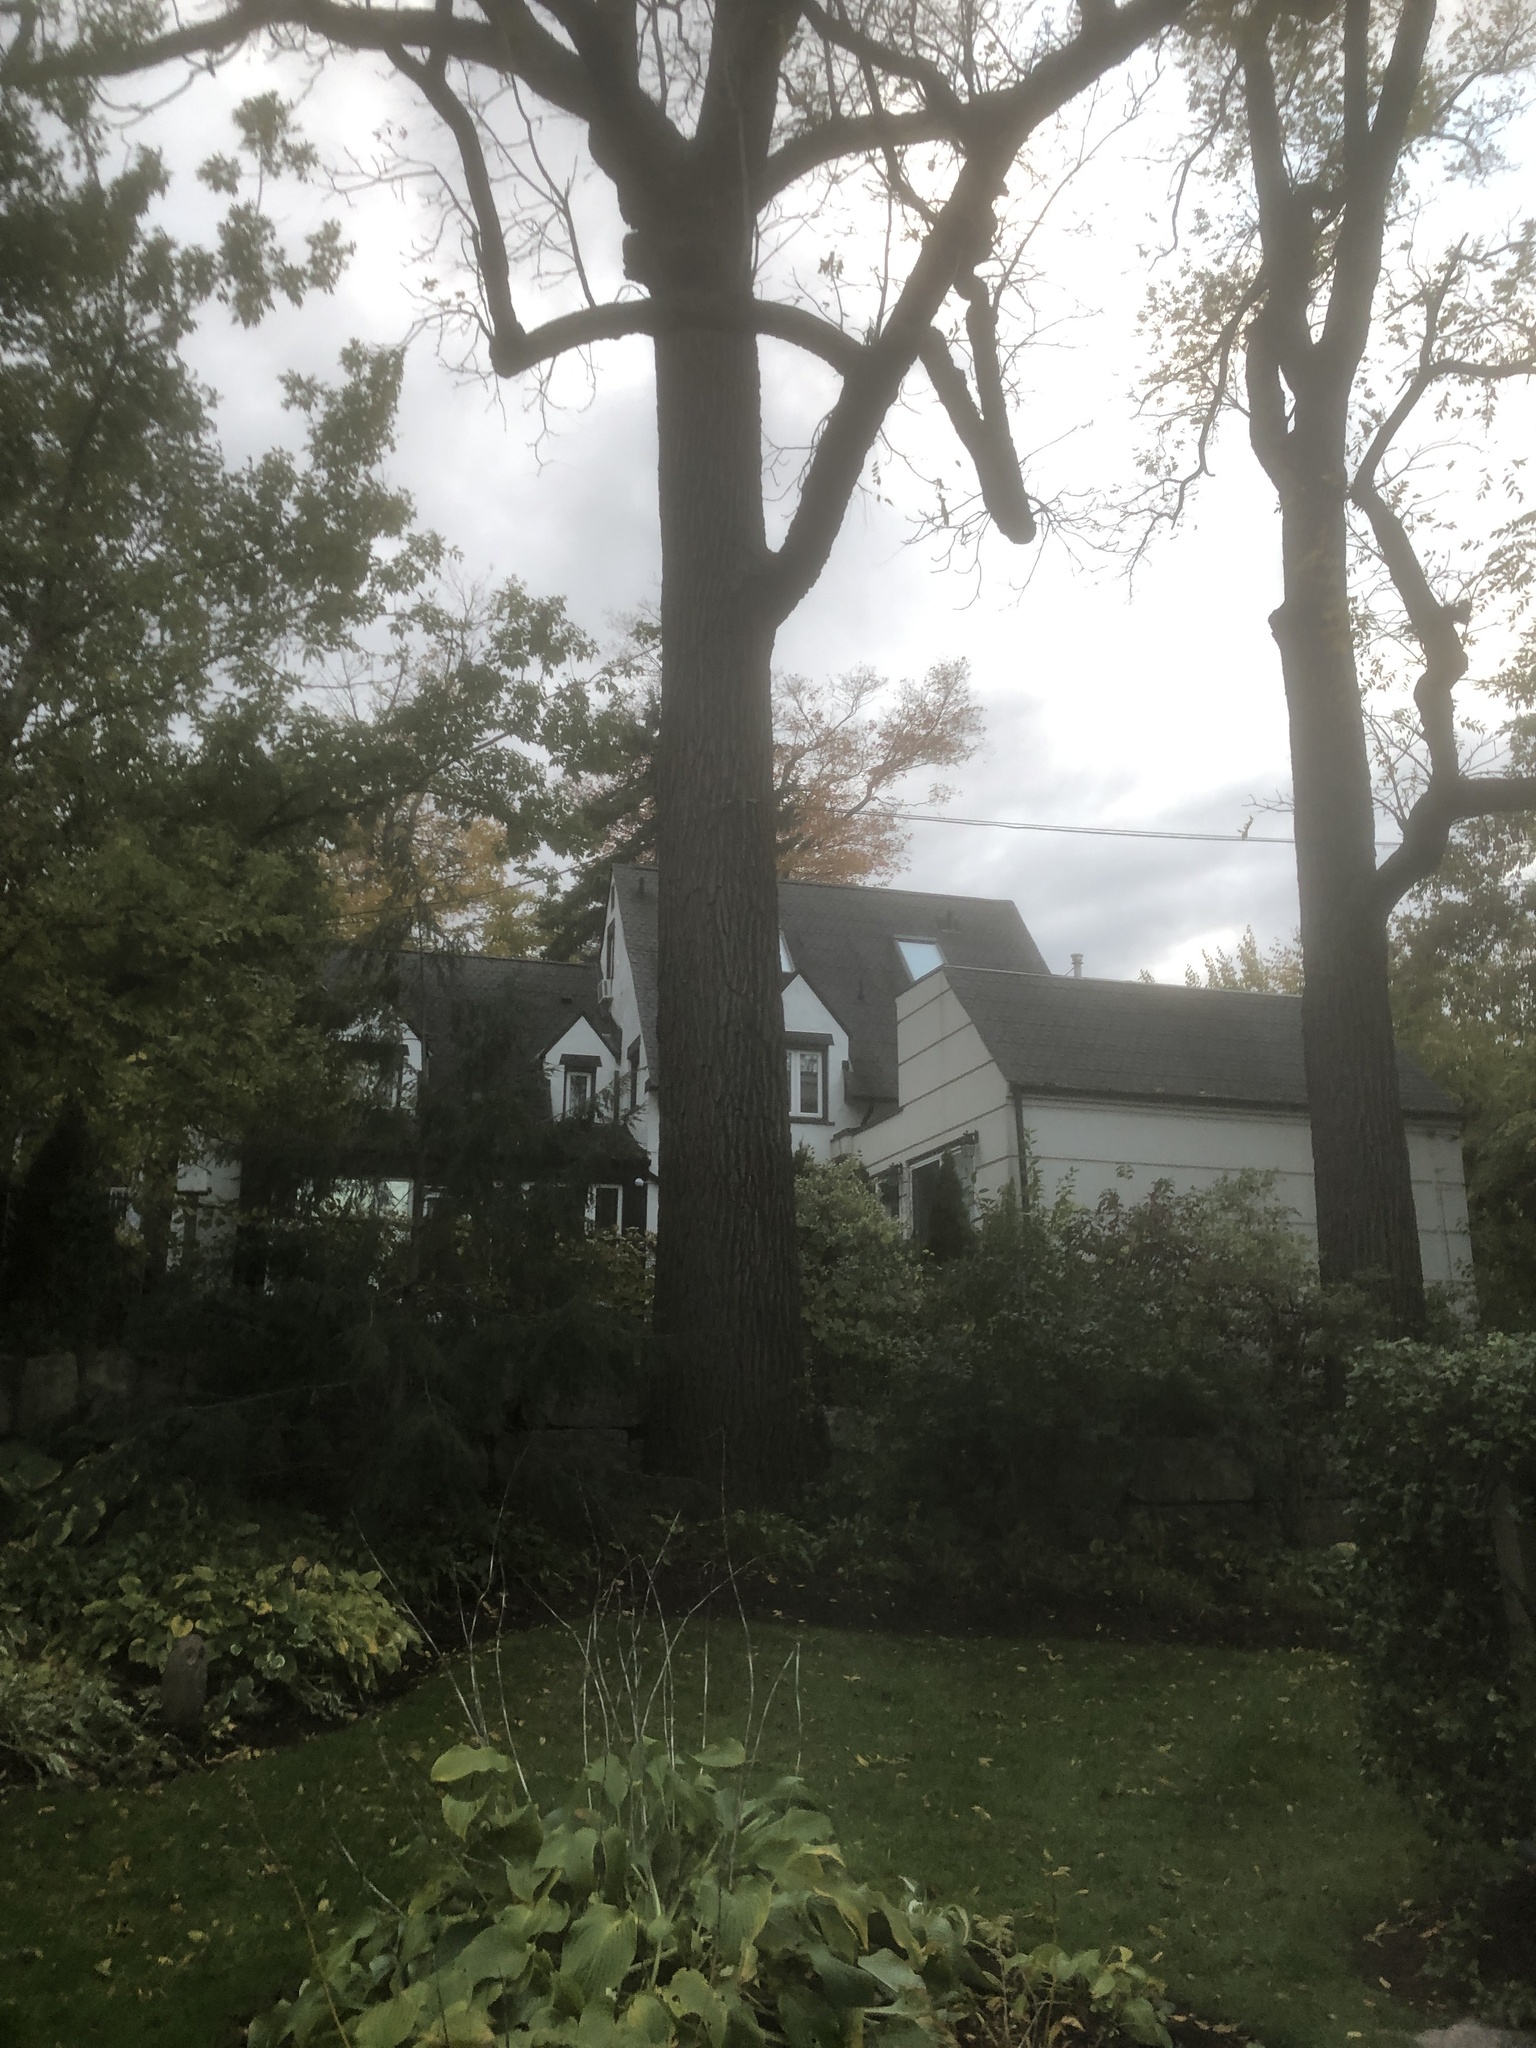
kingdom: Plantae
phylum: Tracheophyta
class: Magnoliopsida
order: Fagales
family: Juglandaceae
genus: Juglans
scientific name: Juglans nigra
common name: Black walnut
